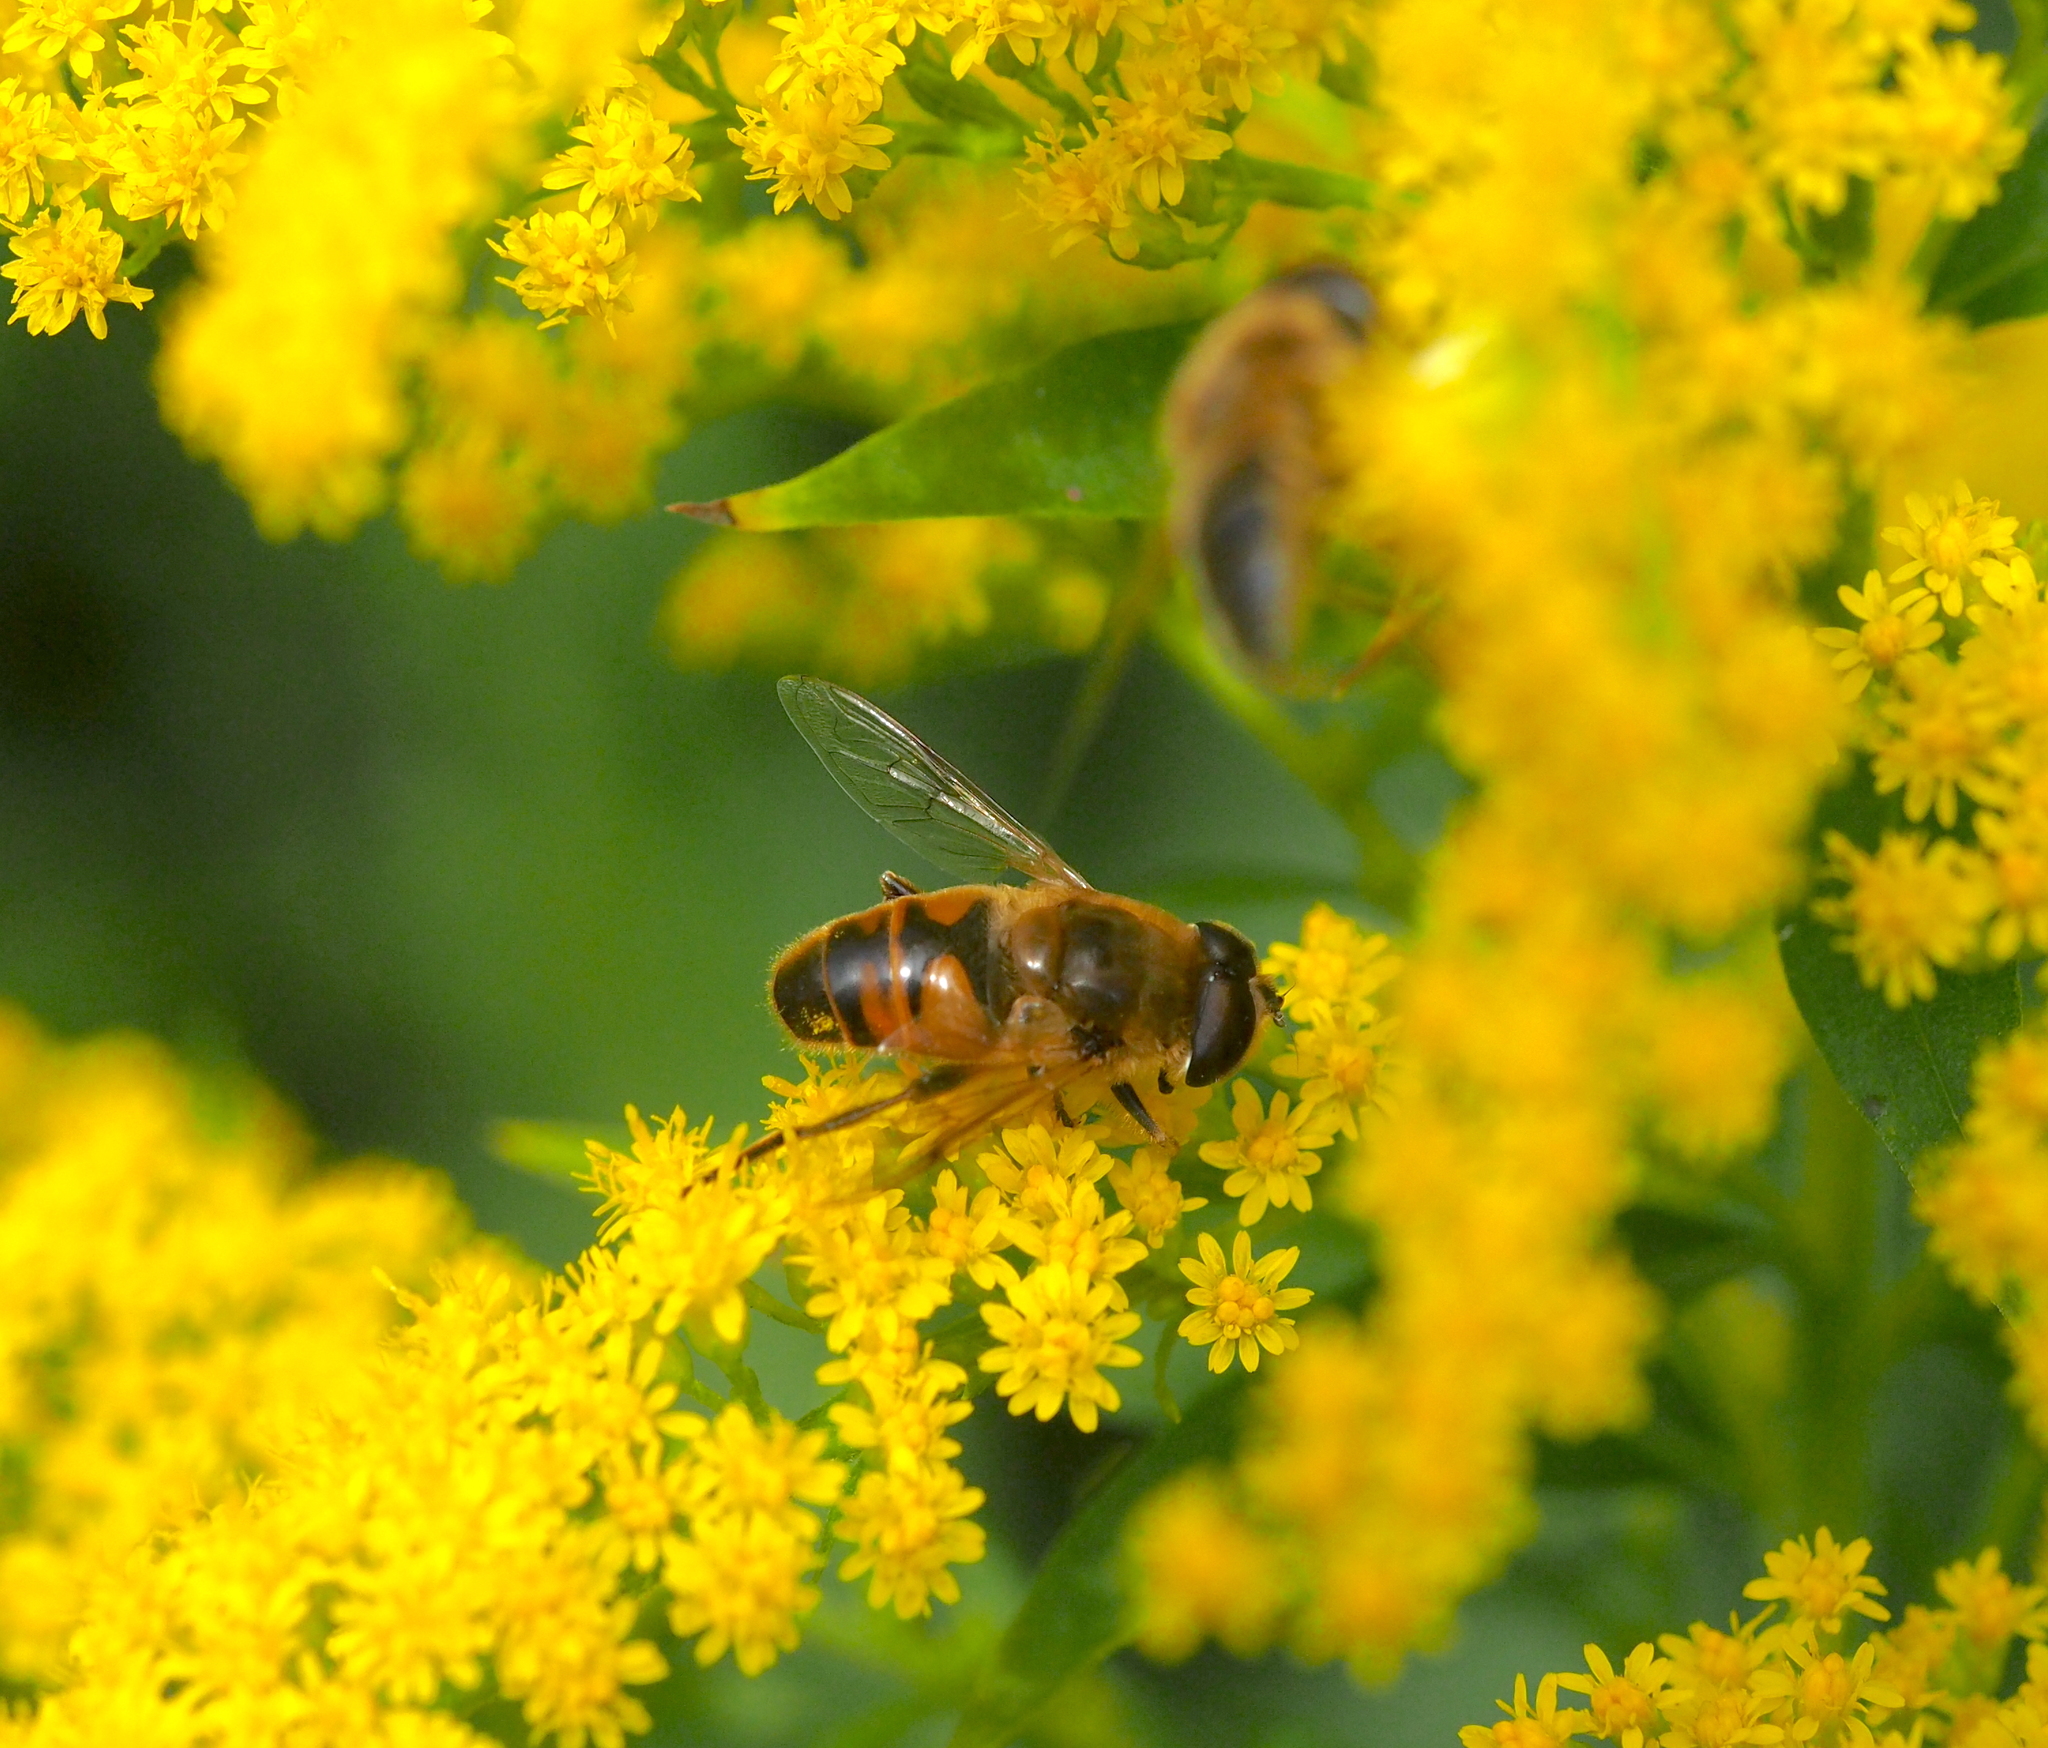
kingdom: Animalia
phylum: Arthropoda
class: Insecta
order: Diptera
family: Syrphidae
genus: Eristalis
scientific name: Eristalis tenax
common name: Drone fly
